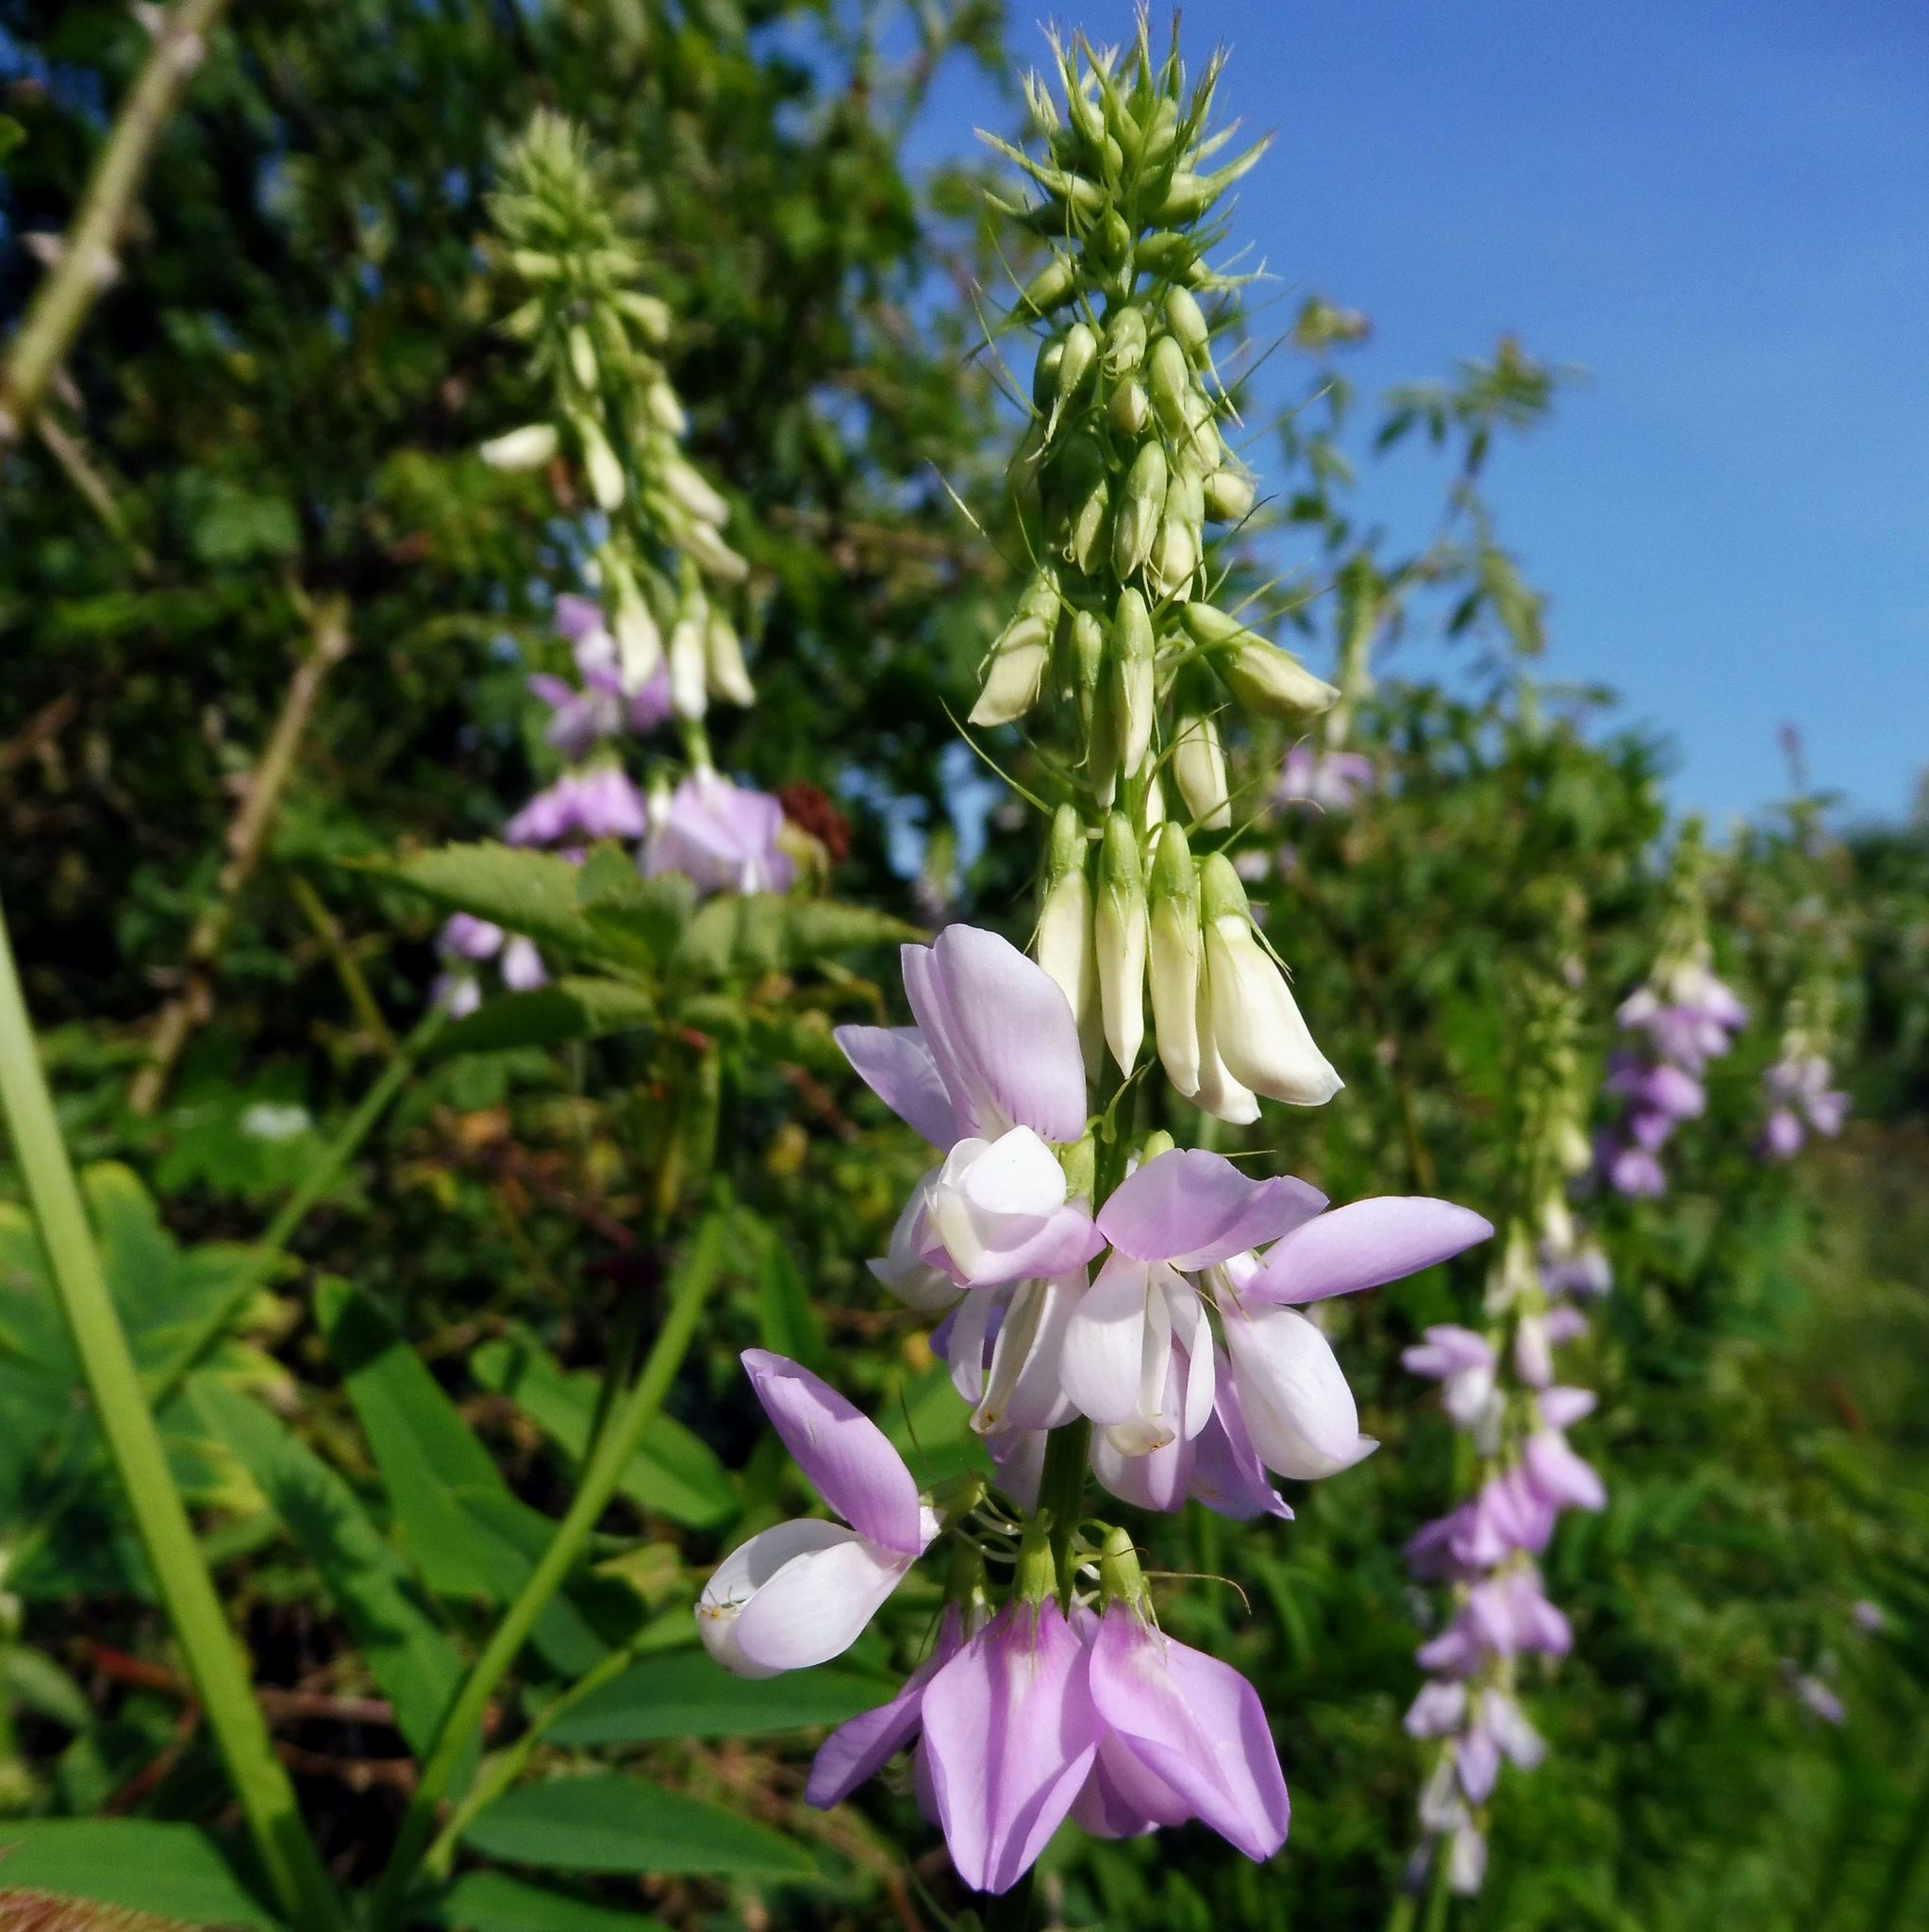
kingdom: Plantae
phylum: Tracheophyta
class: Magnoliopsida
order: Fabales
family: Fabaceae
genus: Galega
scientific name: Galega officinalis
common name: Goat's-rue
